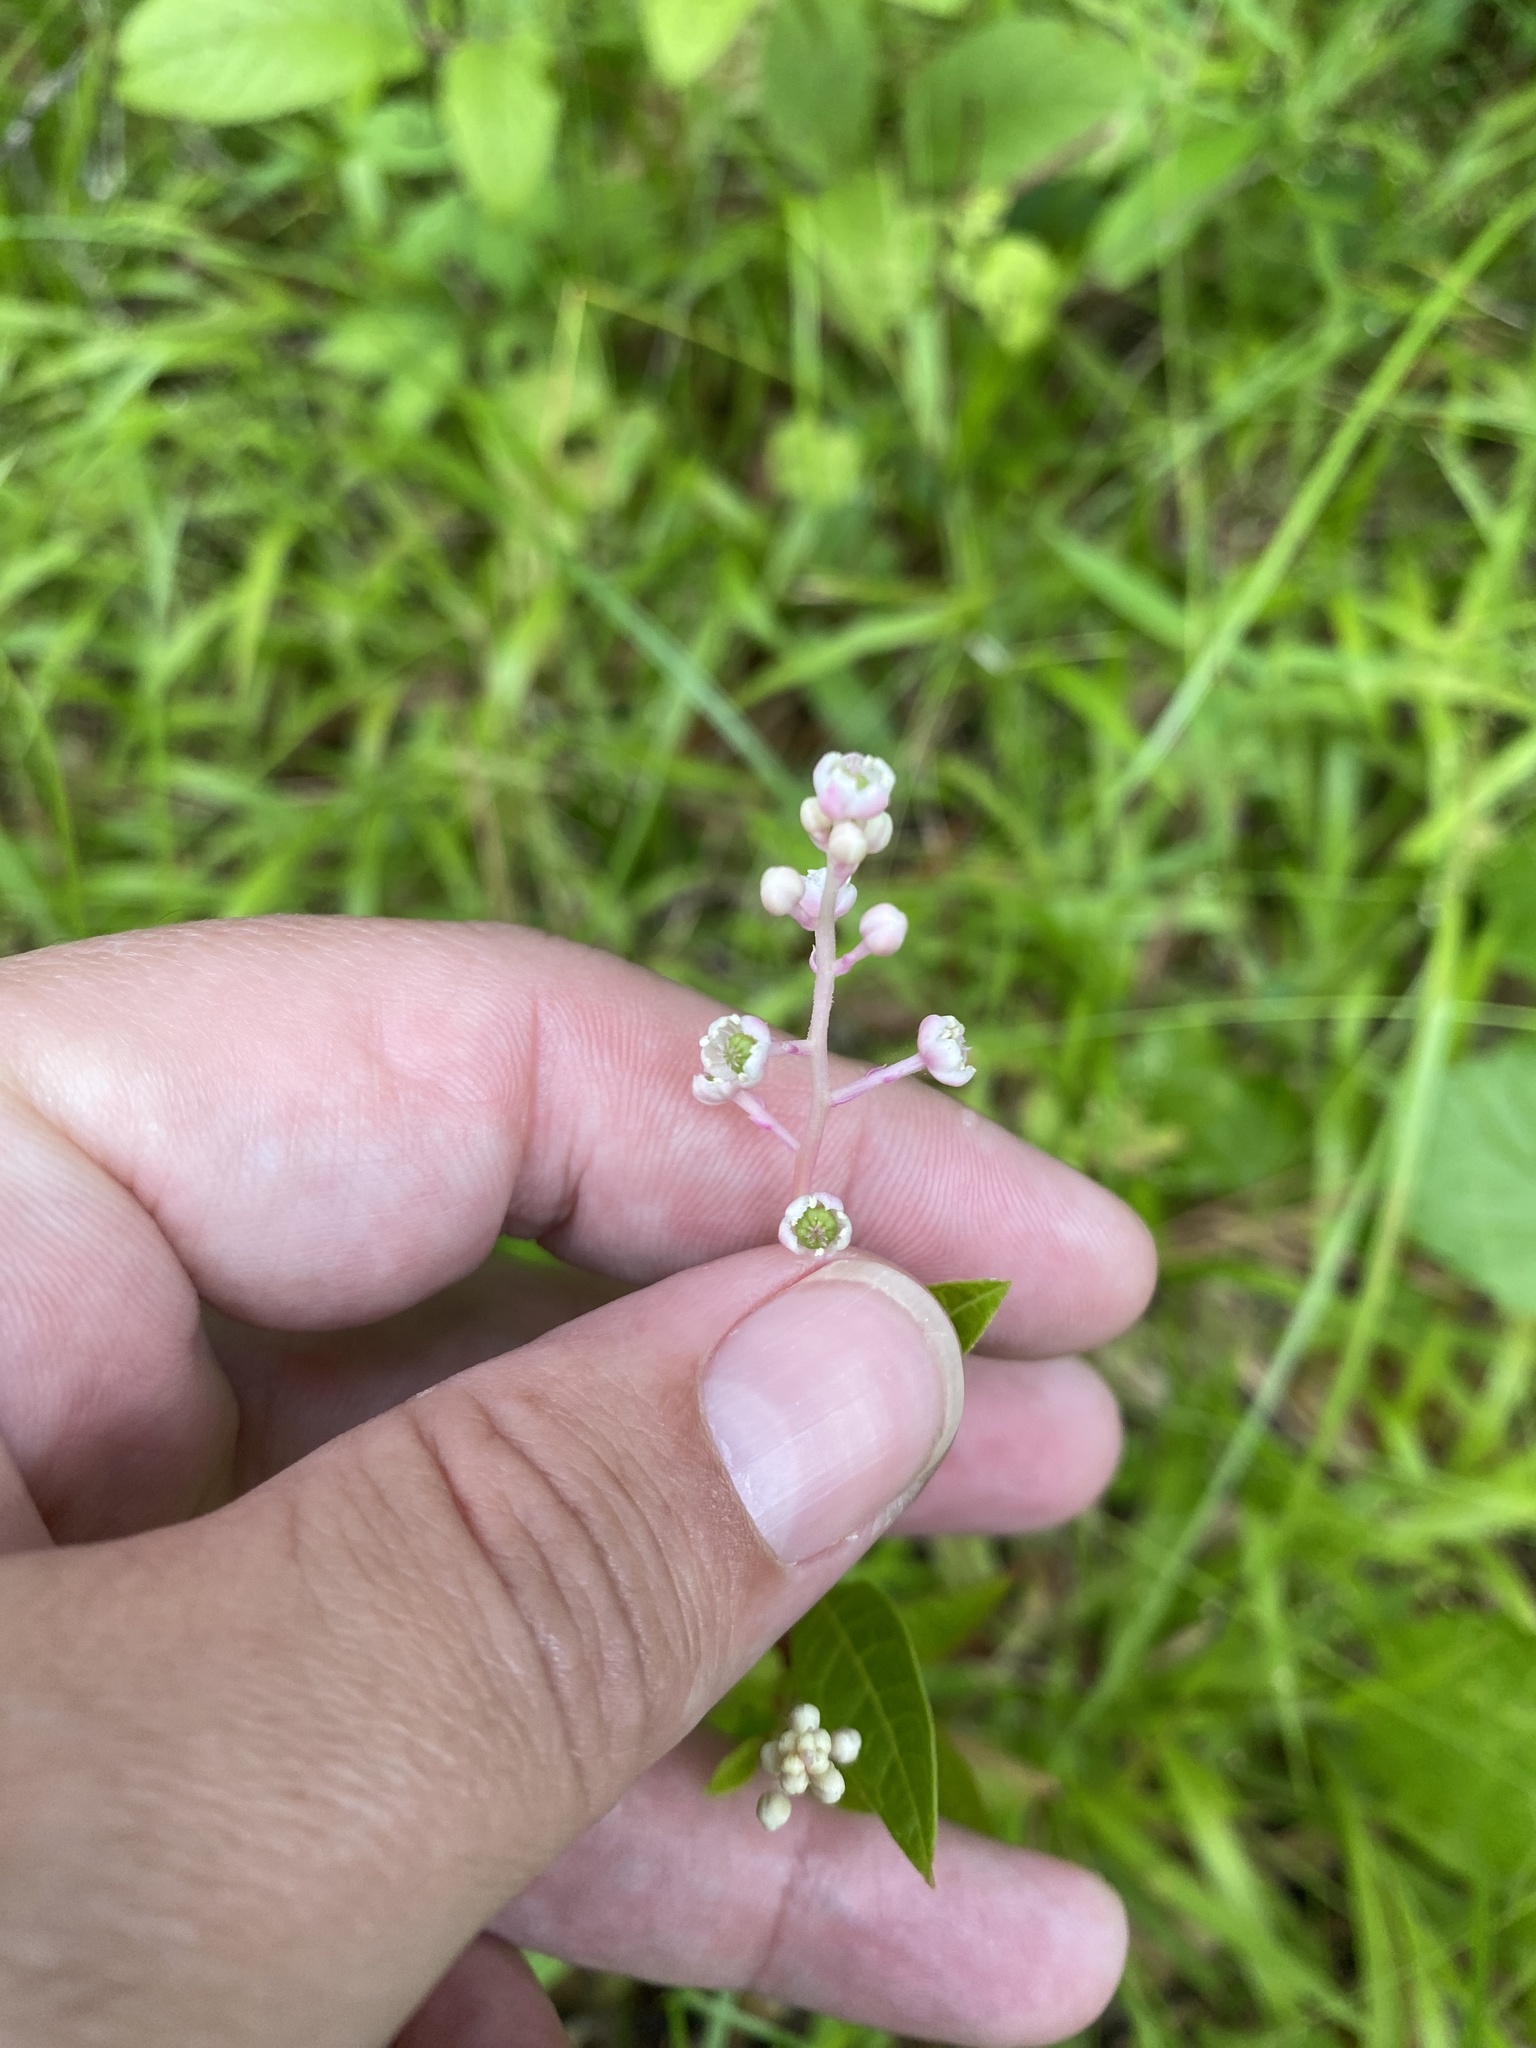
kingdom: Plantae
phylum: Tracheophyta
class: Magnoliopsida
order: Caryophyllales
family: Phytolaccaceae
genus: Phytolacca
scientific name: Phytolacca americana
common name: American pokeweed
